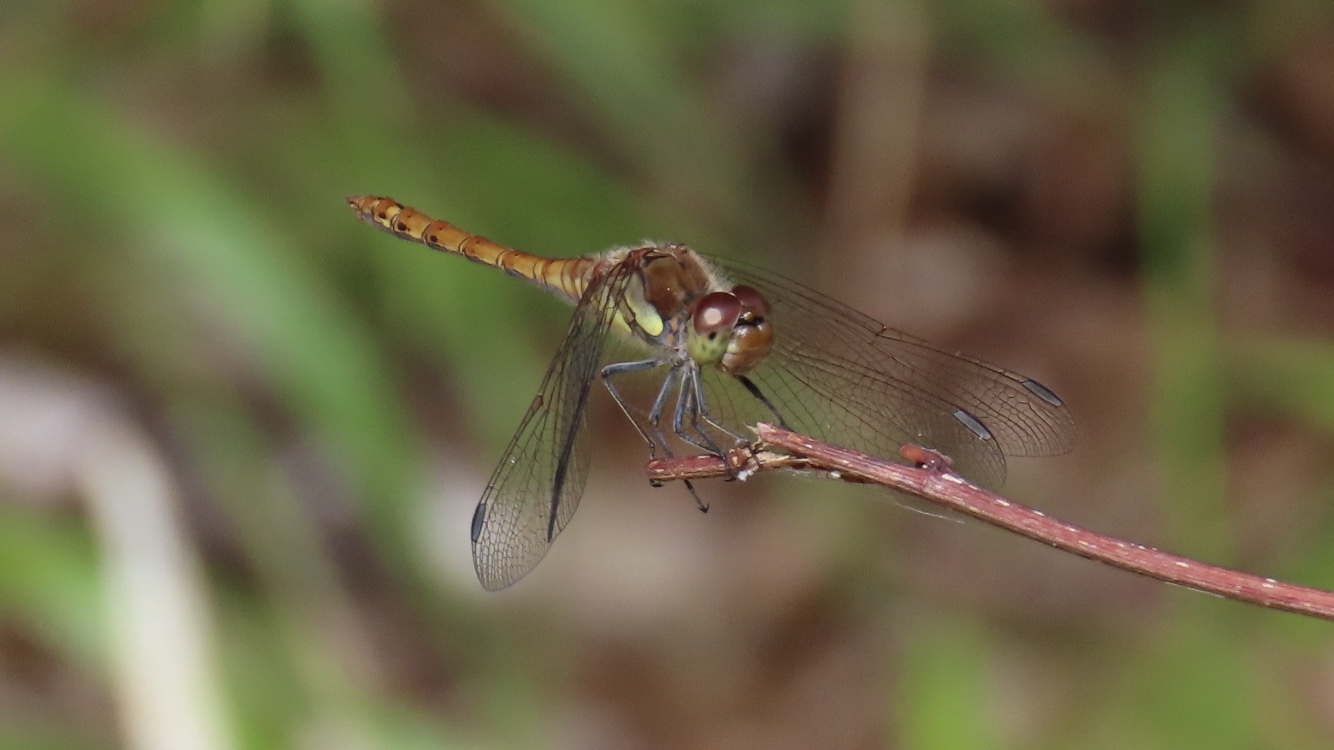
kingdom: Animalia
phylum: Arthropoda
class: Insecta
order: Odonata
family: Libellulidae
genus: Sympetrum
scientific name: Sympetrum striolatum
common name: Common darter
